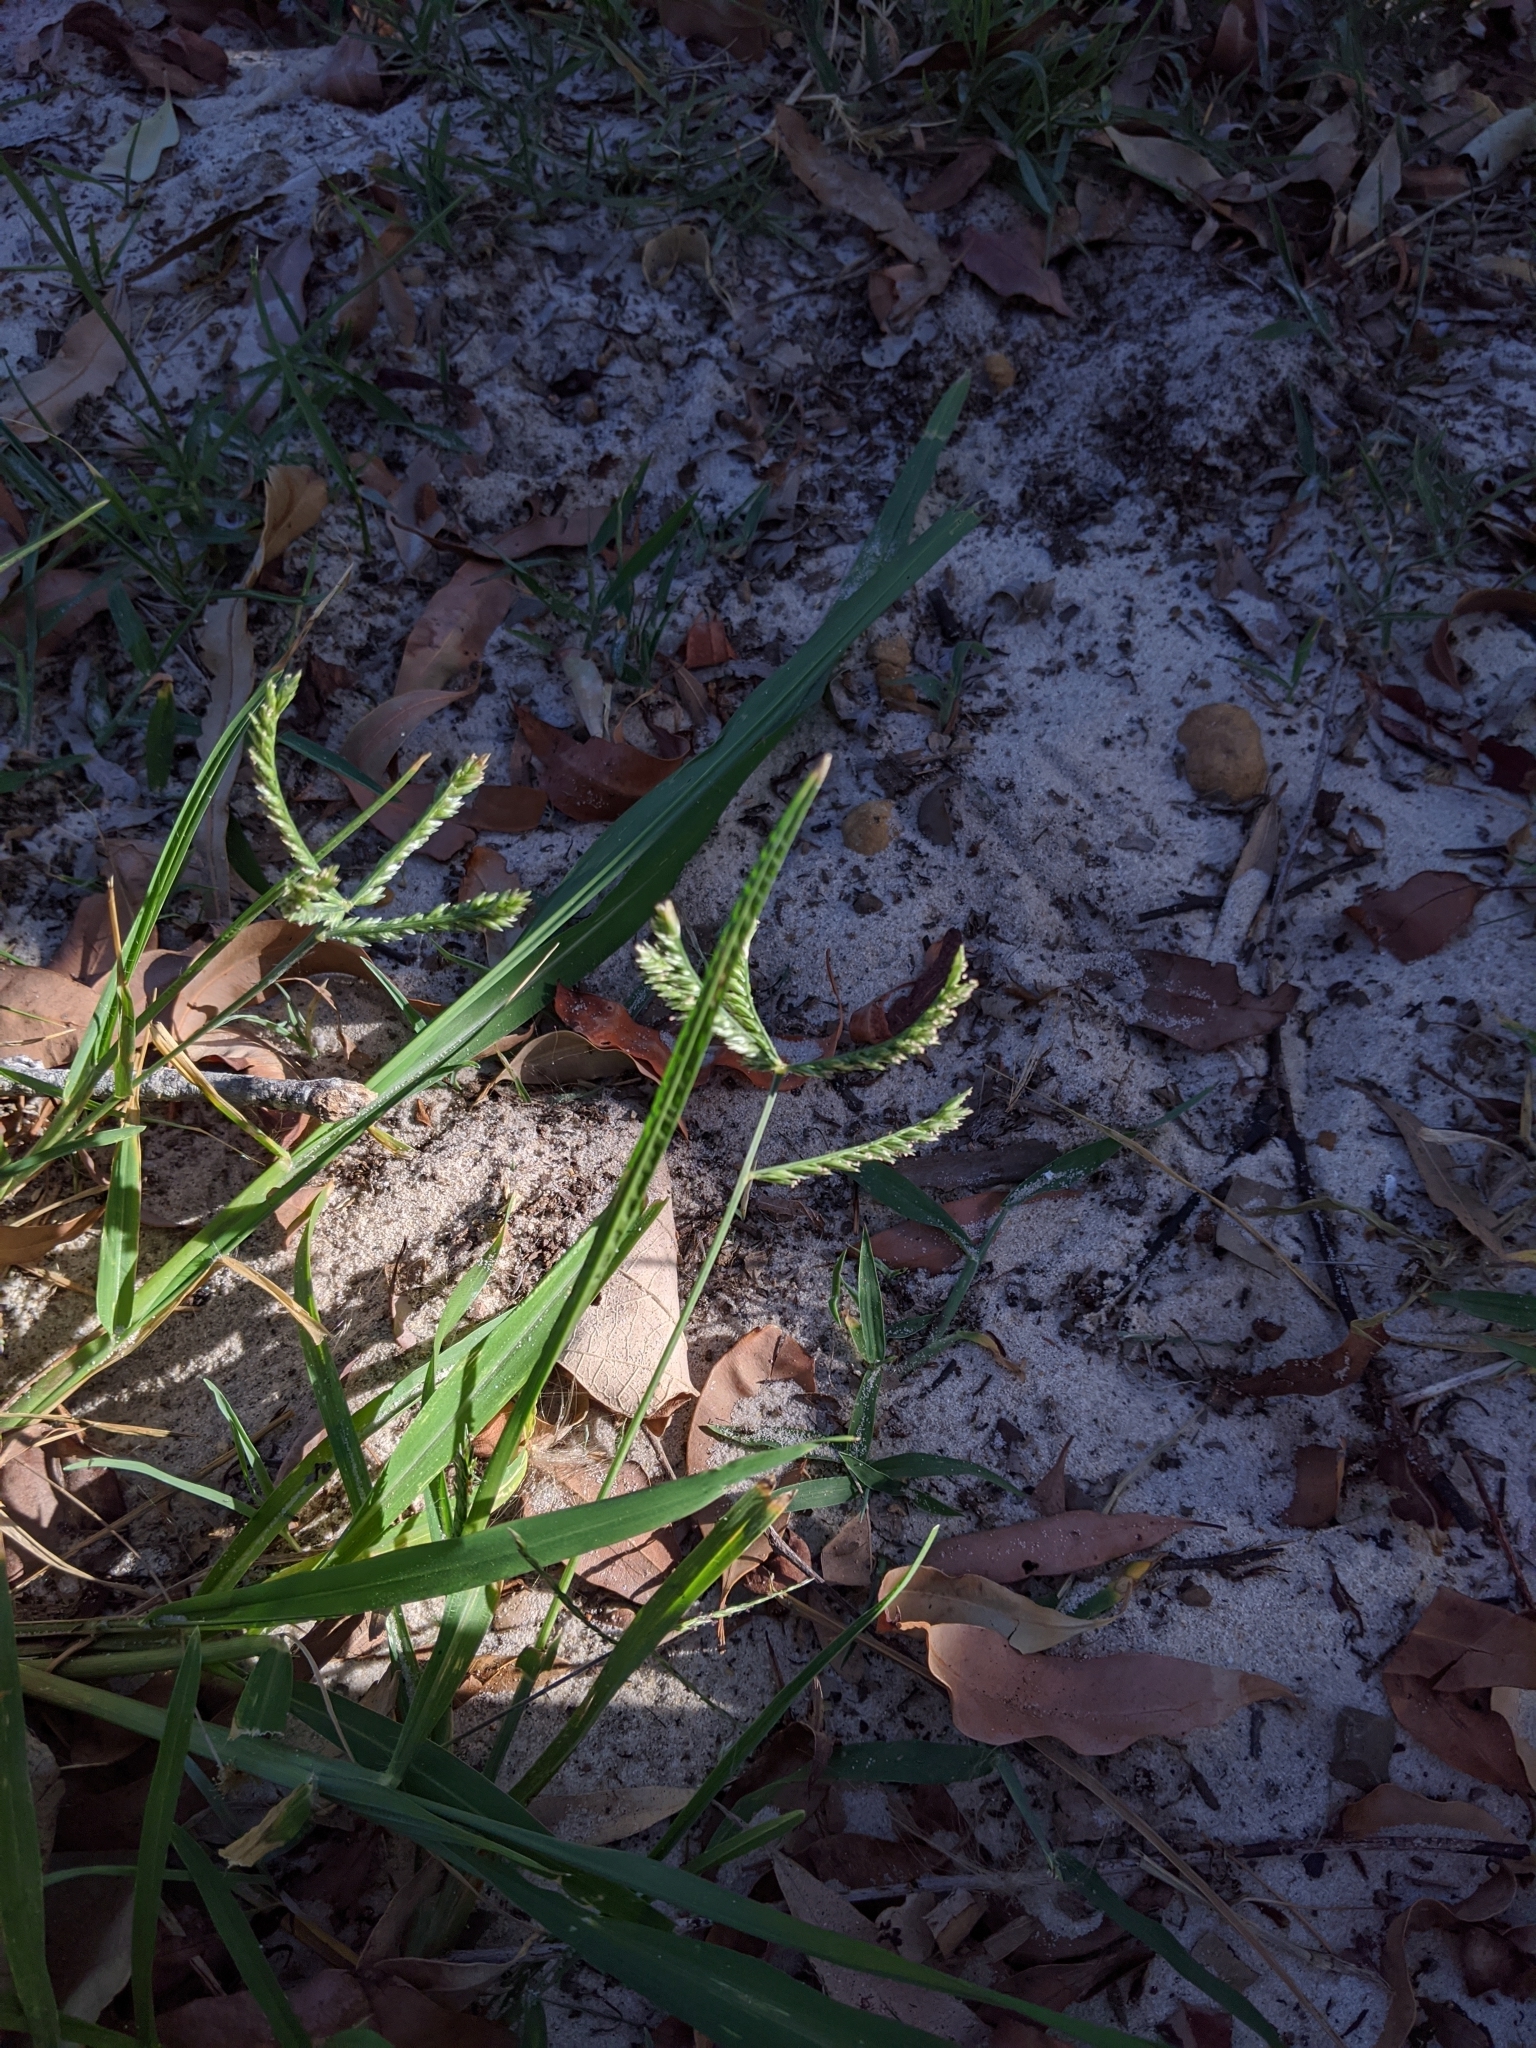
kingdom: Plantae
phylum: Tracheophyta
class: Liliopsida
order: Poales
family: Poaceae
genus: Eleusine
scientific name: Eleusine tristachya
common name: American yard-grass
